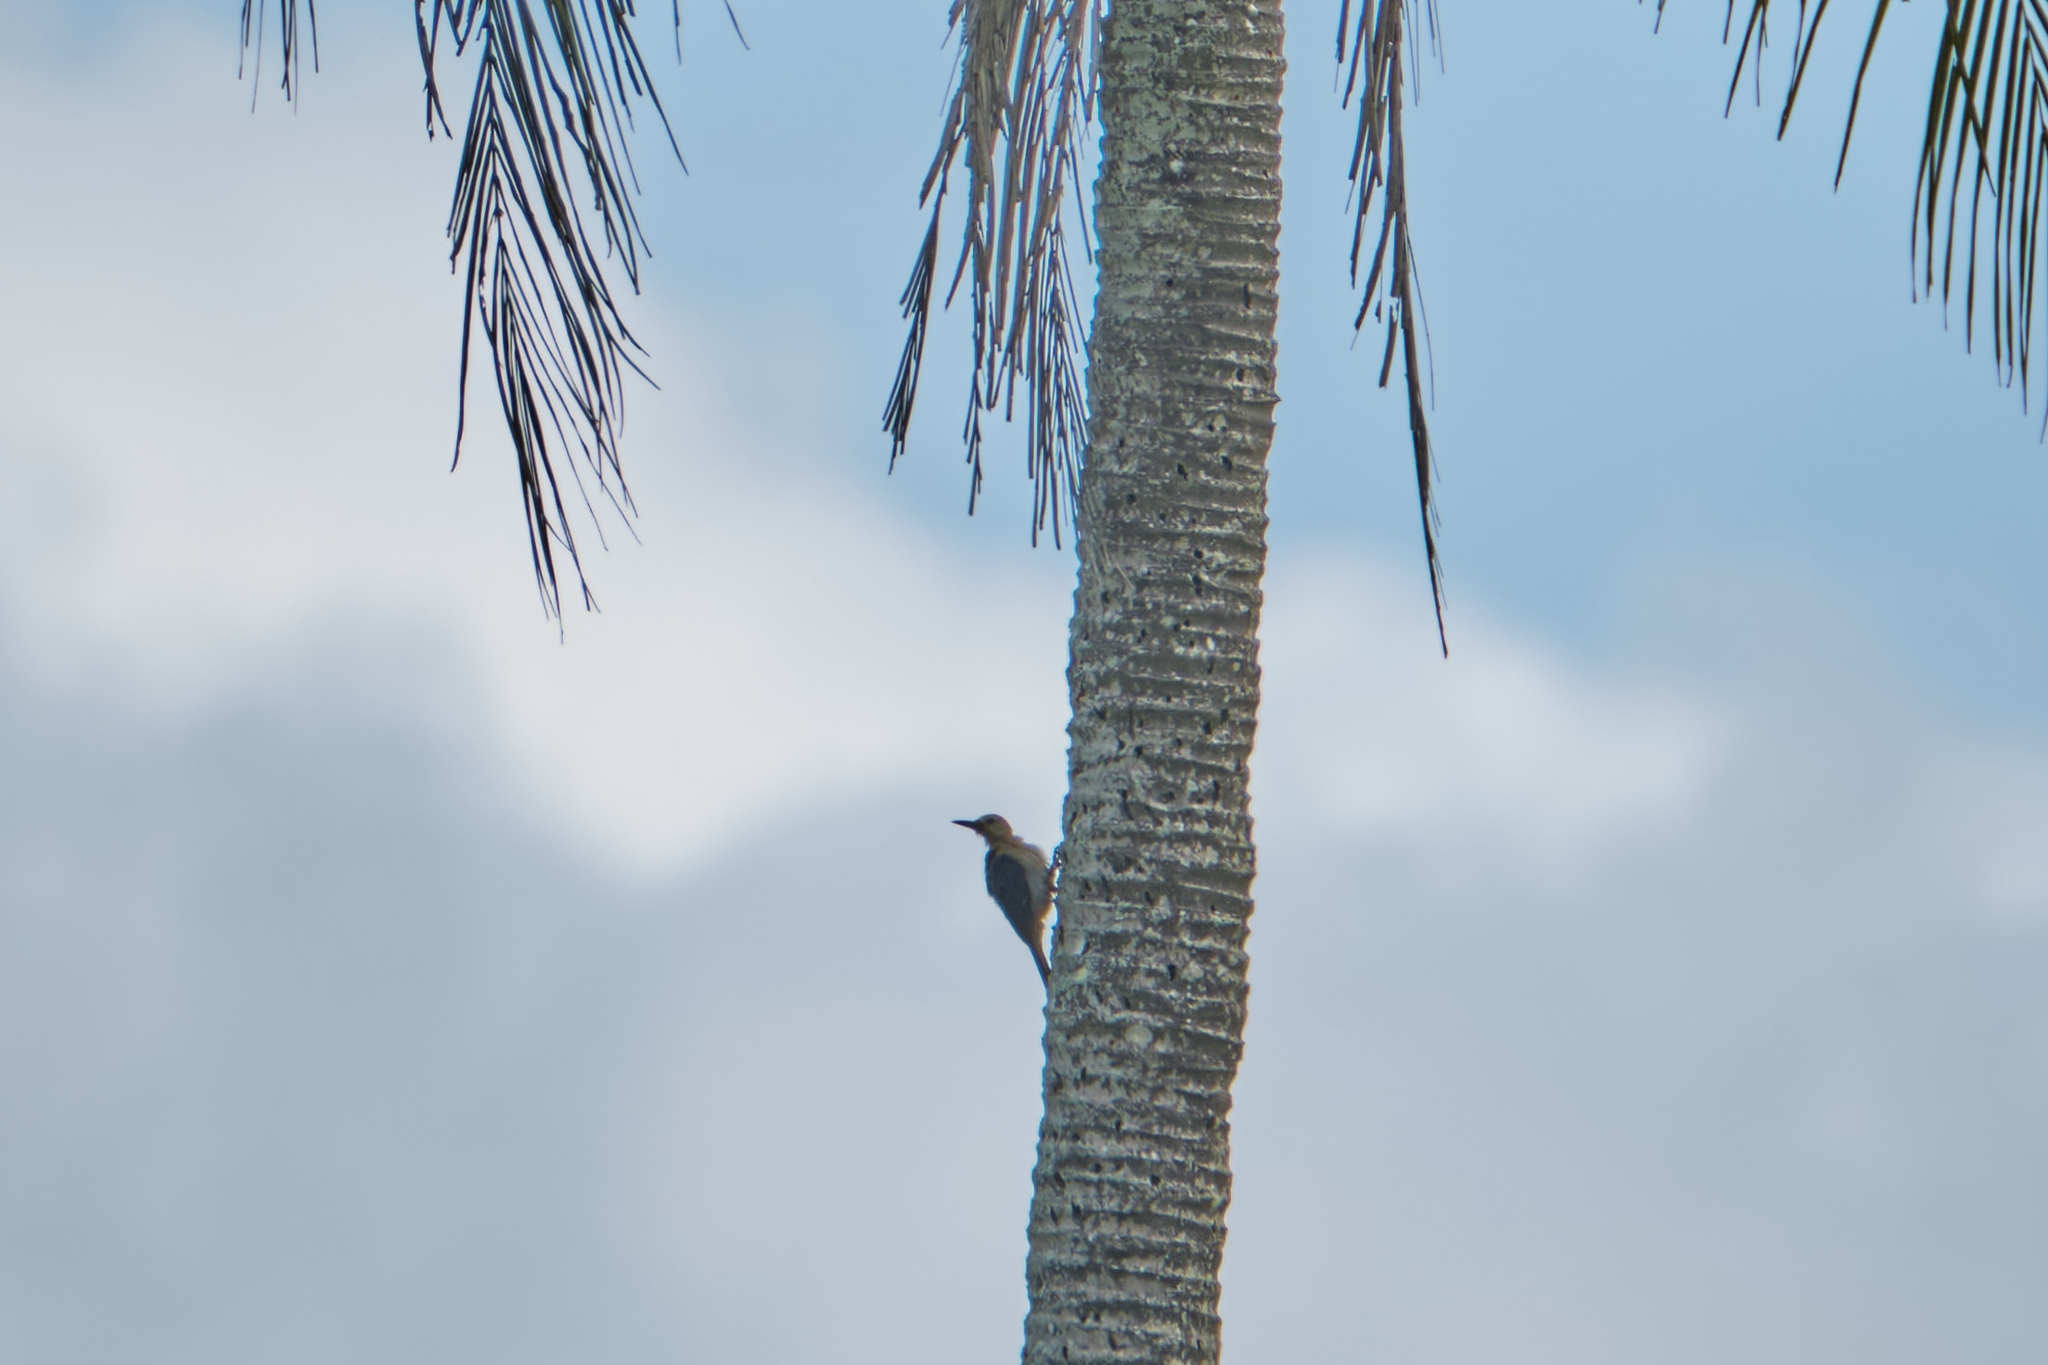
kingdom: Animalia
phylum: Chordata
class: Aves
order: Piciformes
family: Picidae
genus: Melanerpes
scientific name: Melanerpes aurifrons
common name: Golden-fronted woodpecker
